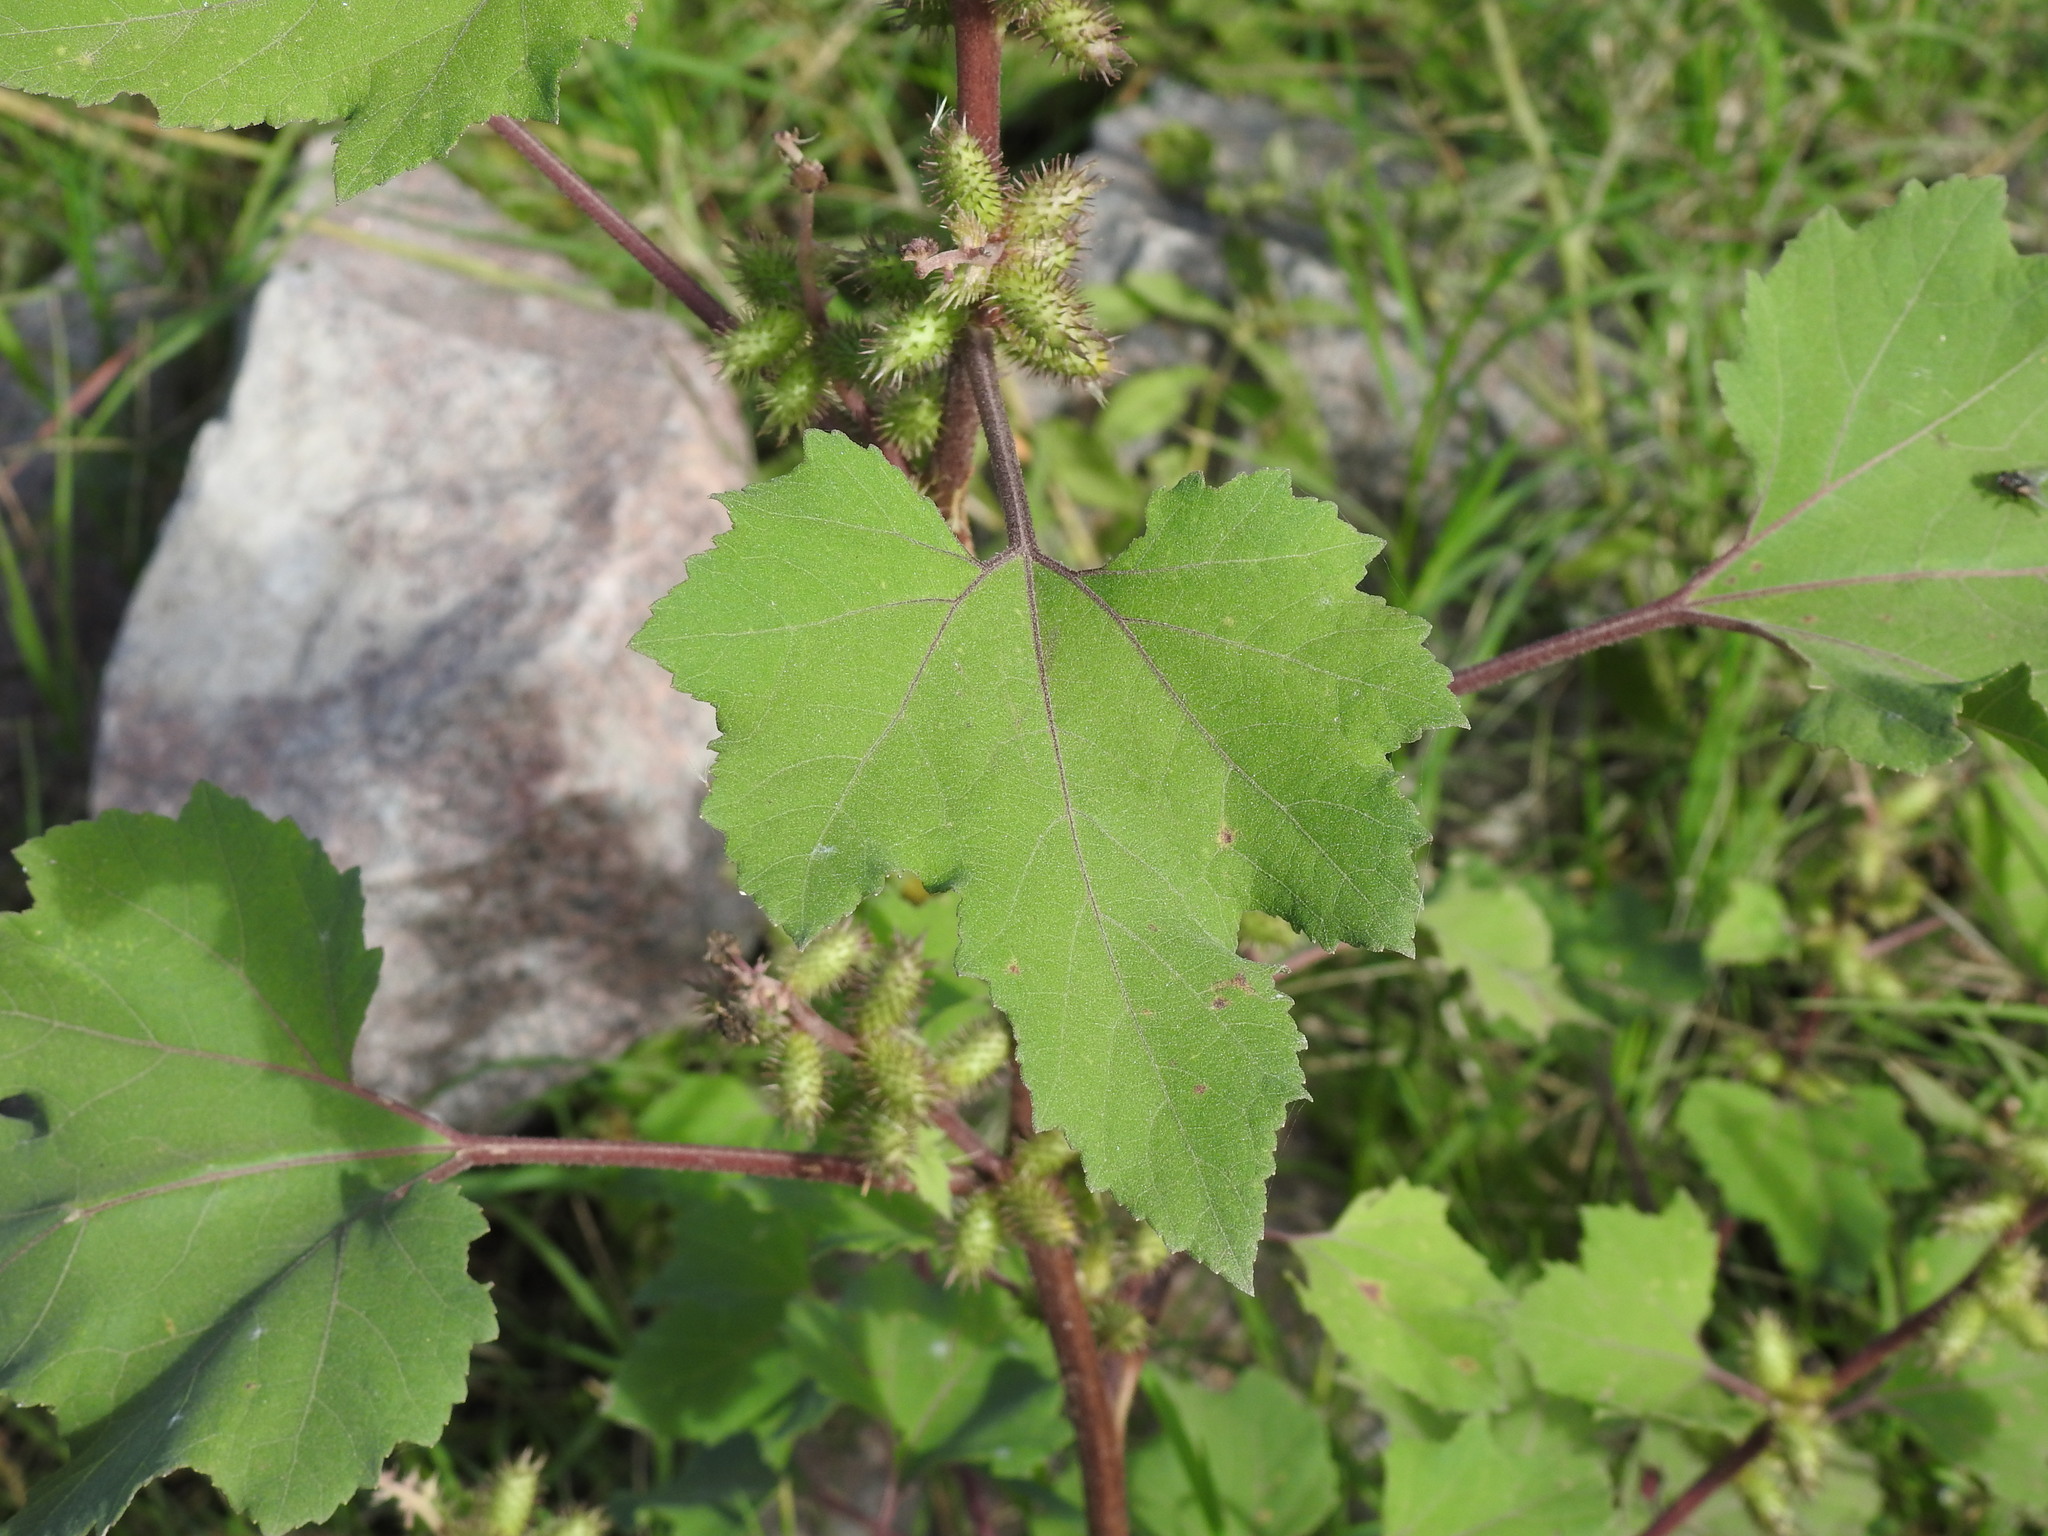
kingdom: Plantae
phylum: Tracheophyta
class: Magnoliopsida
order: Asterales
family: Asteraceae
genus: Xanthium
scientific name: Xanthium strumarium
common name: Rough cocklebur
